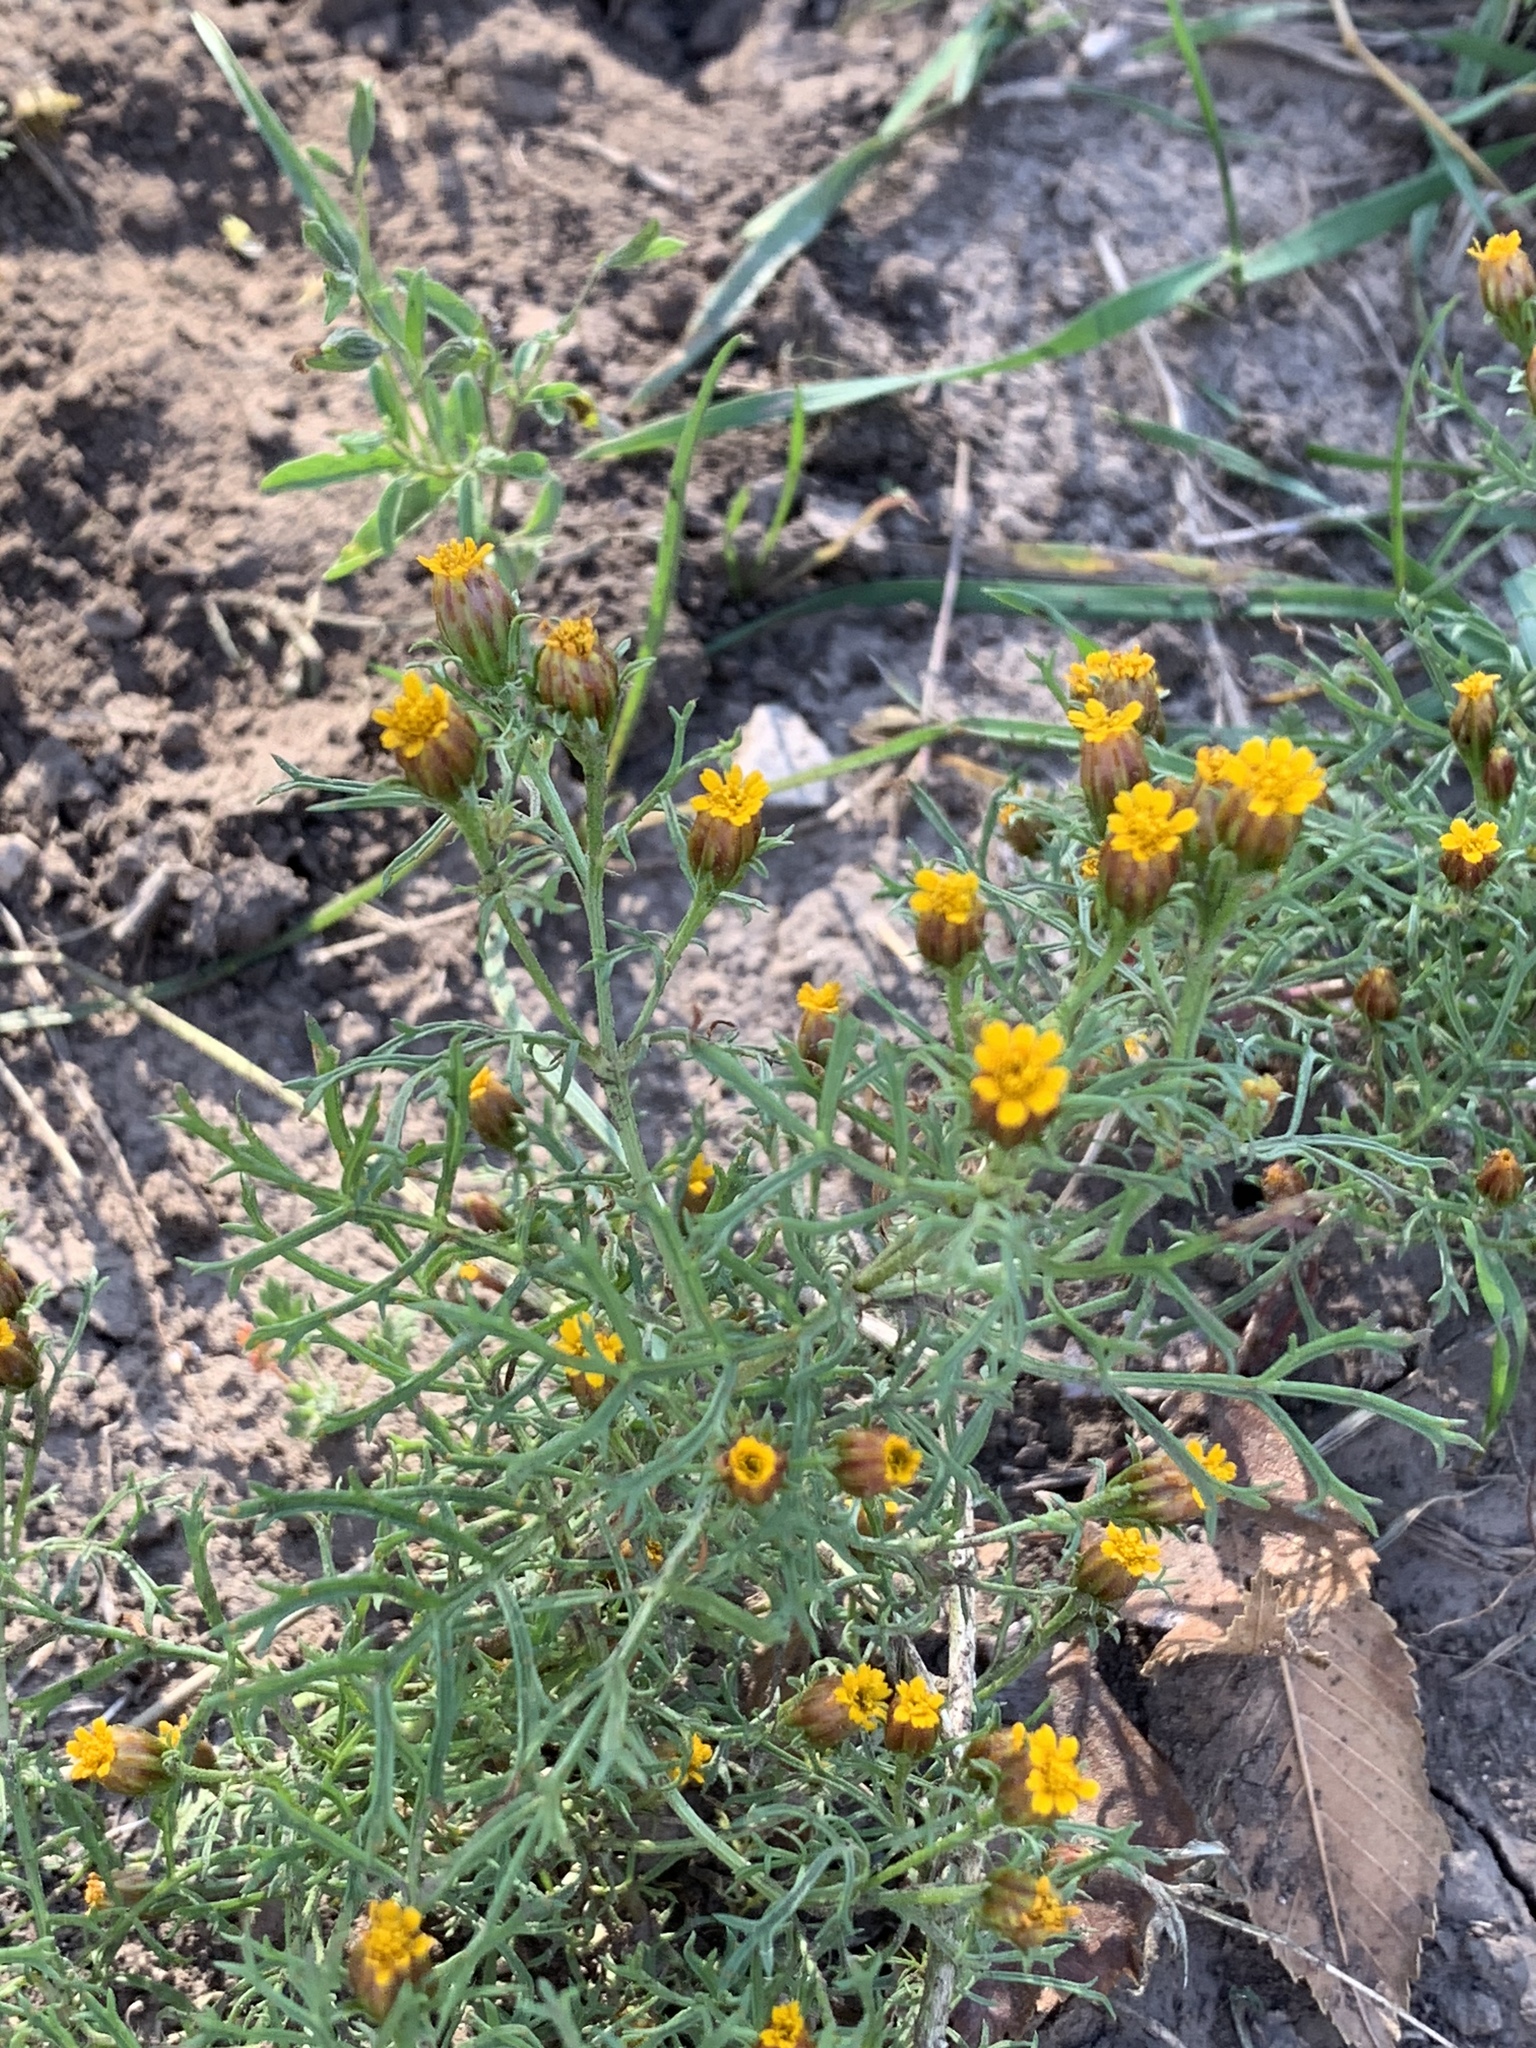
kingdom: Plantae
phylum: Tracheophyta
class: Magnoliopsida
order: Asterales
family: Asteraceae
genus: Dyssodia
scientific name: Dyssodia papposa
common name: Dogweed
